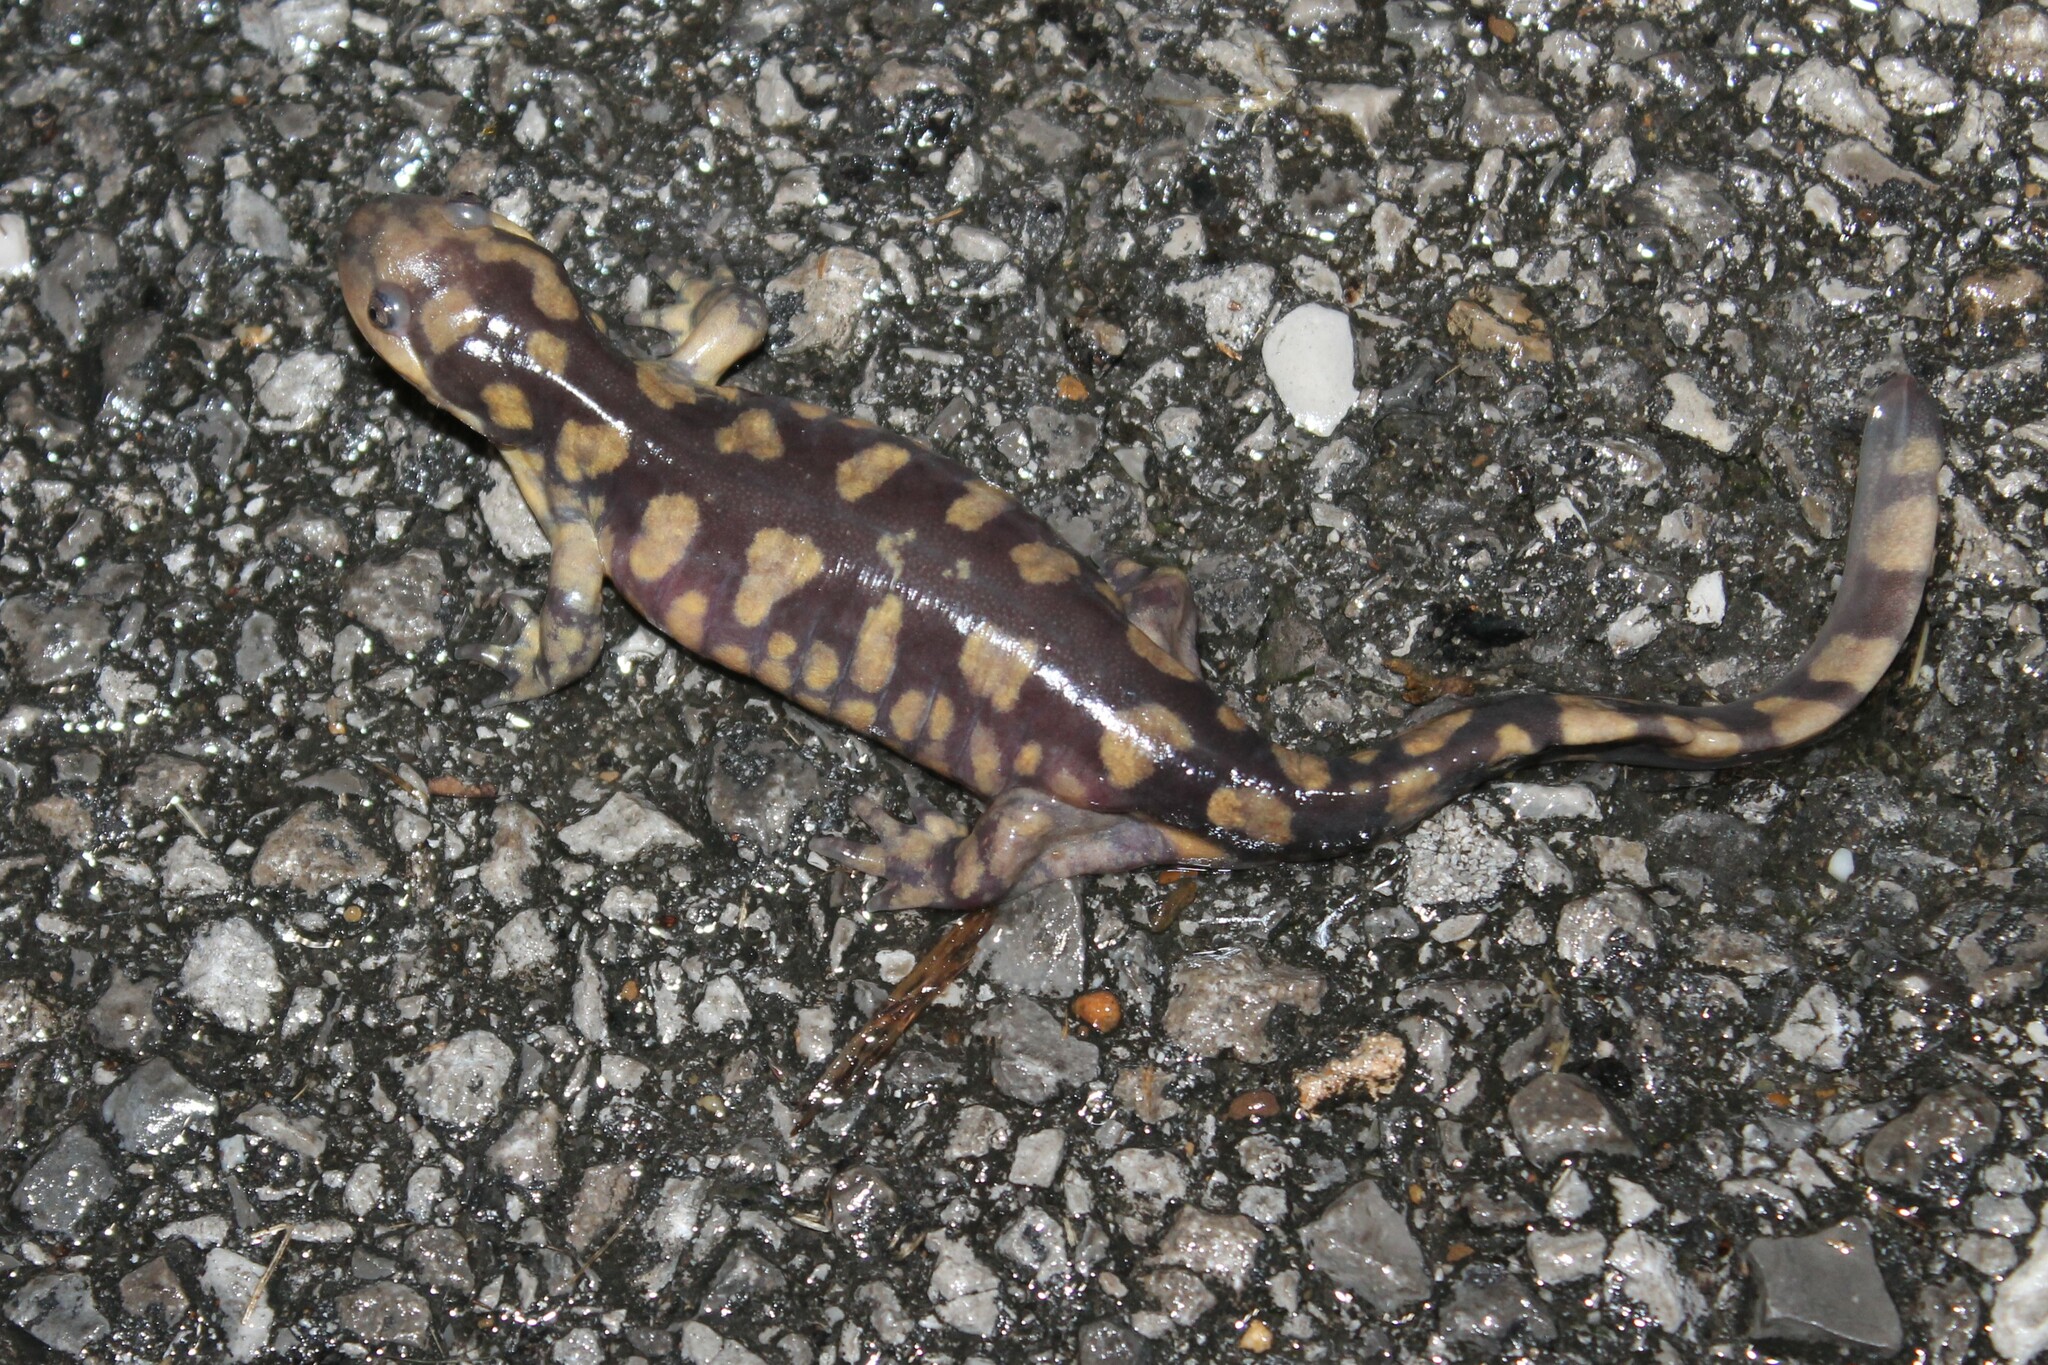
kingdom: Animalia
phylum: Chordata
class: Amphibia
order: Caudata
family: Ambystomatidae
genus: Ambystoma
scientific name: Ambystoma tigrinum
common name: Tiger salamander
